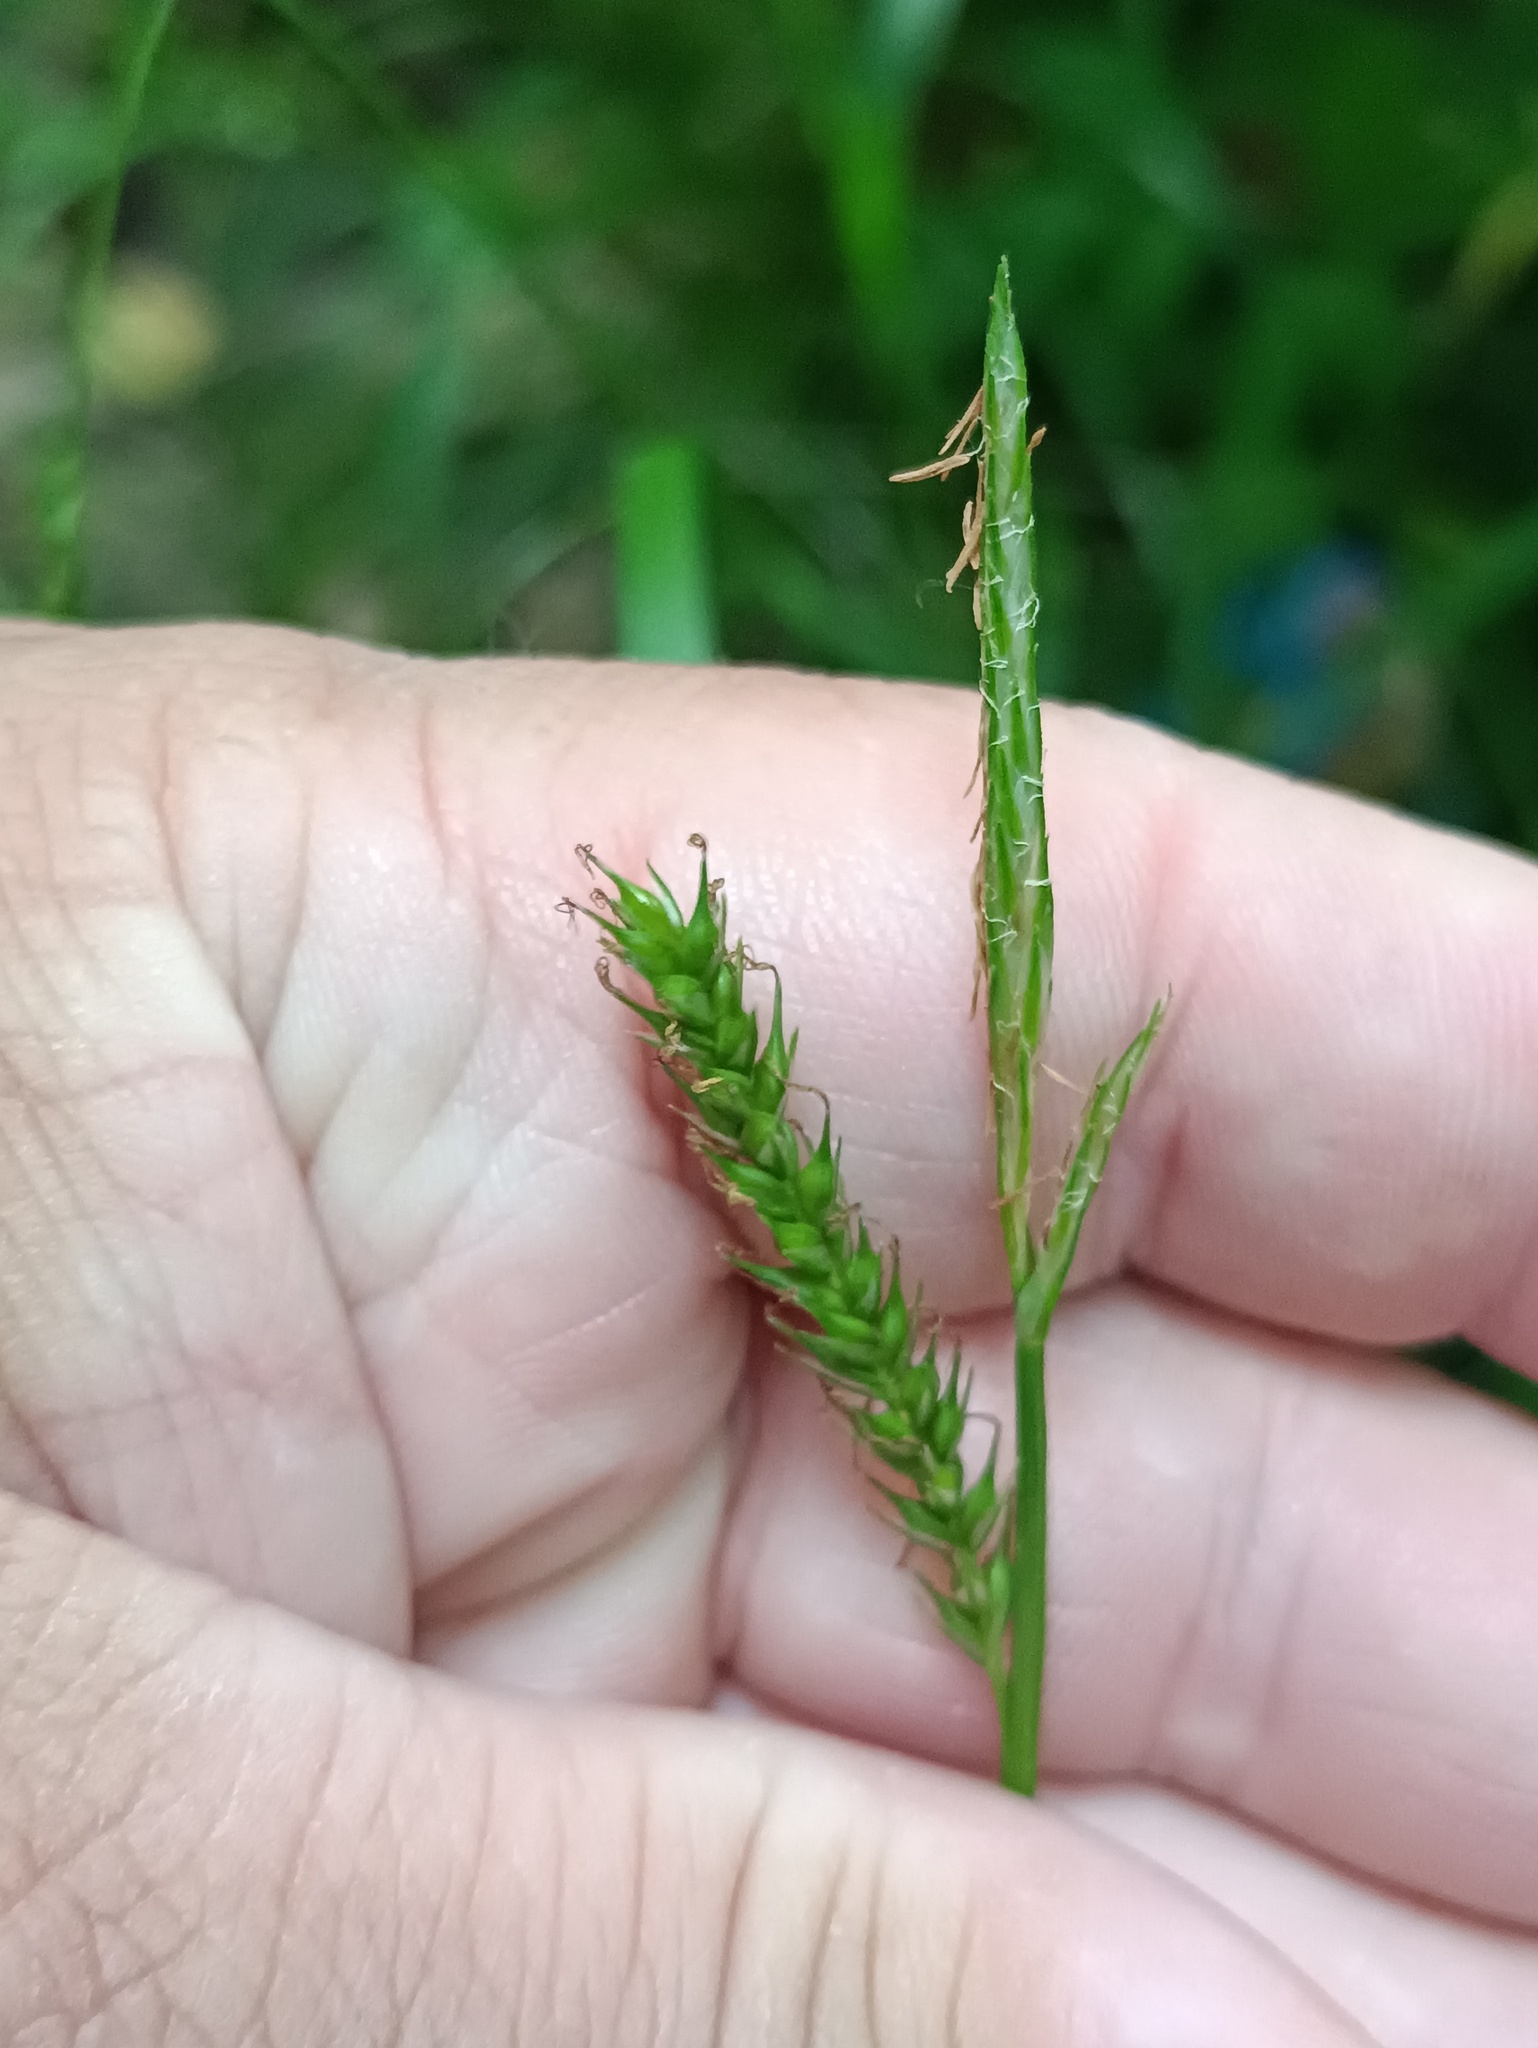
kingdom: Plantae
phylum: Tracheophyta
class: Liliopsida
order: Poales
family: Cyperaceae
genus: Carex
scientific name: Carex sylvatica
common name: Wood-sedge
